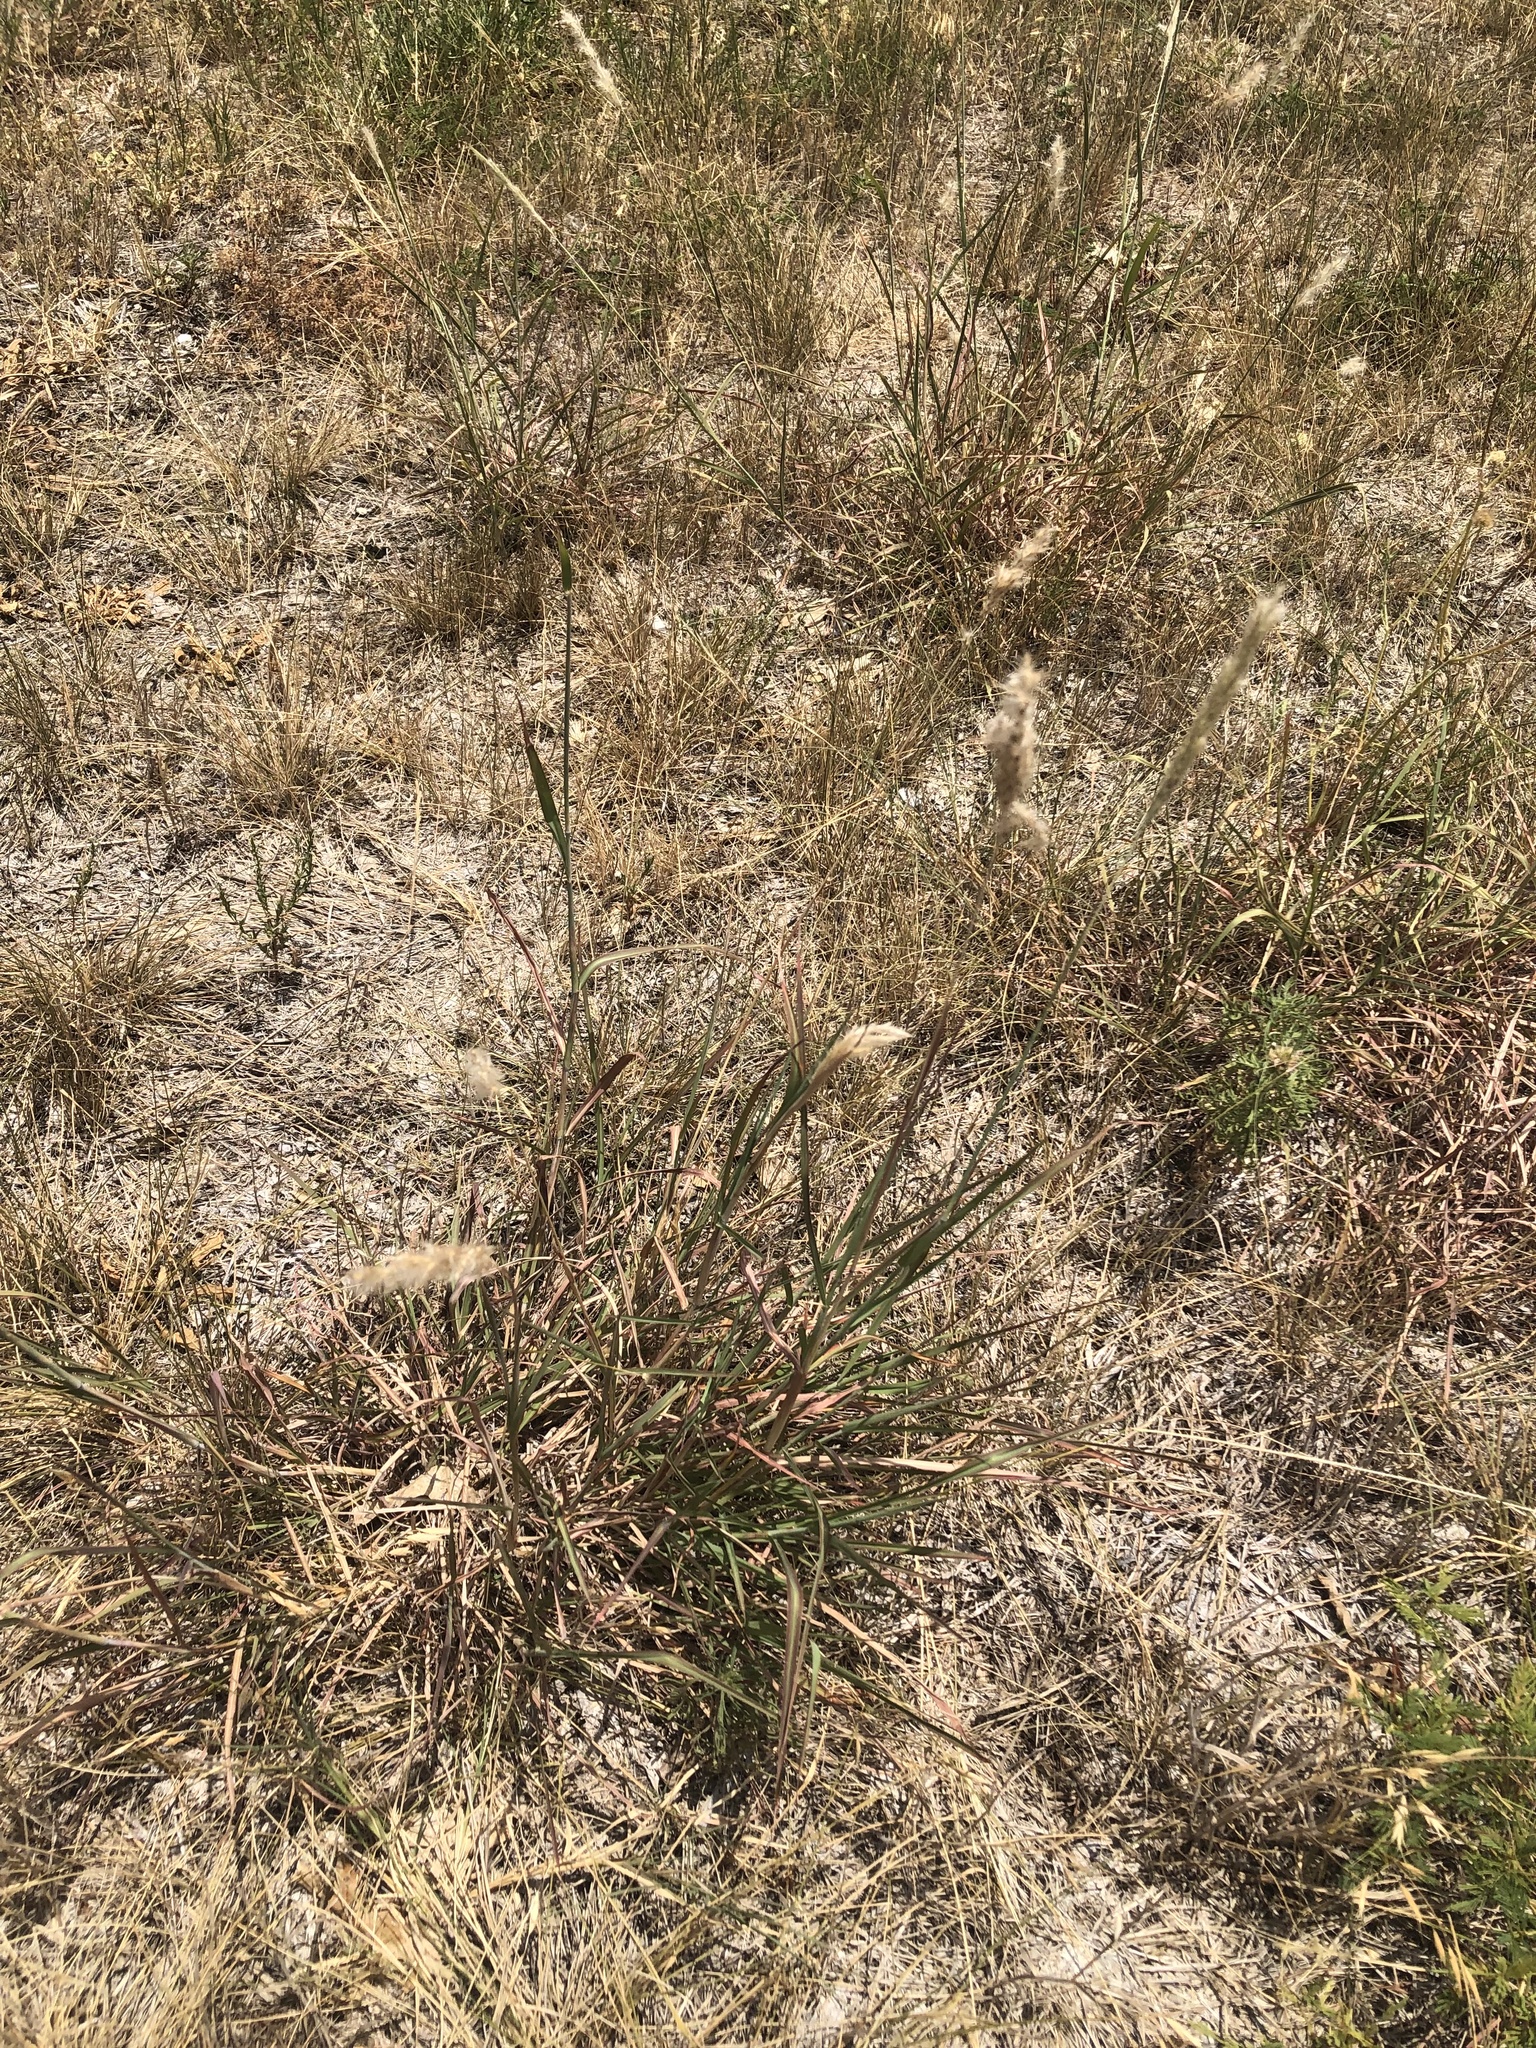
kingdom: Plantae
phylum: Tracheophyta
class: Liliopsida
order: Poales
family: Poaceae
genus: Bothriochloa
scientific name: Bothriochloa torreyana
